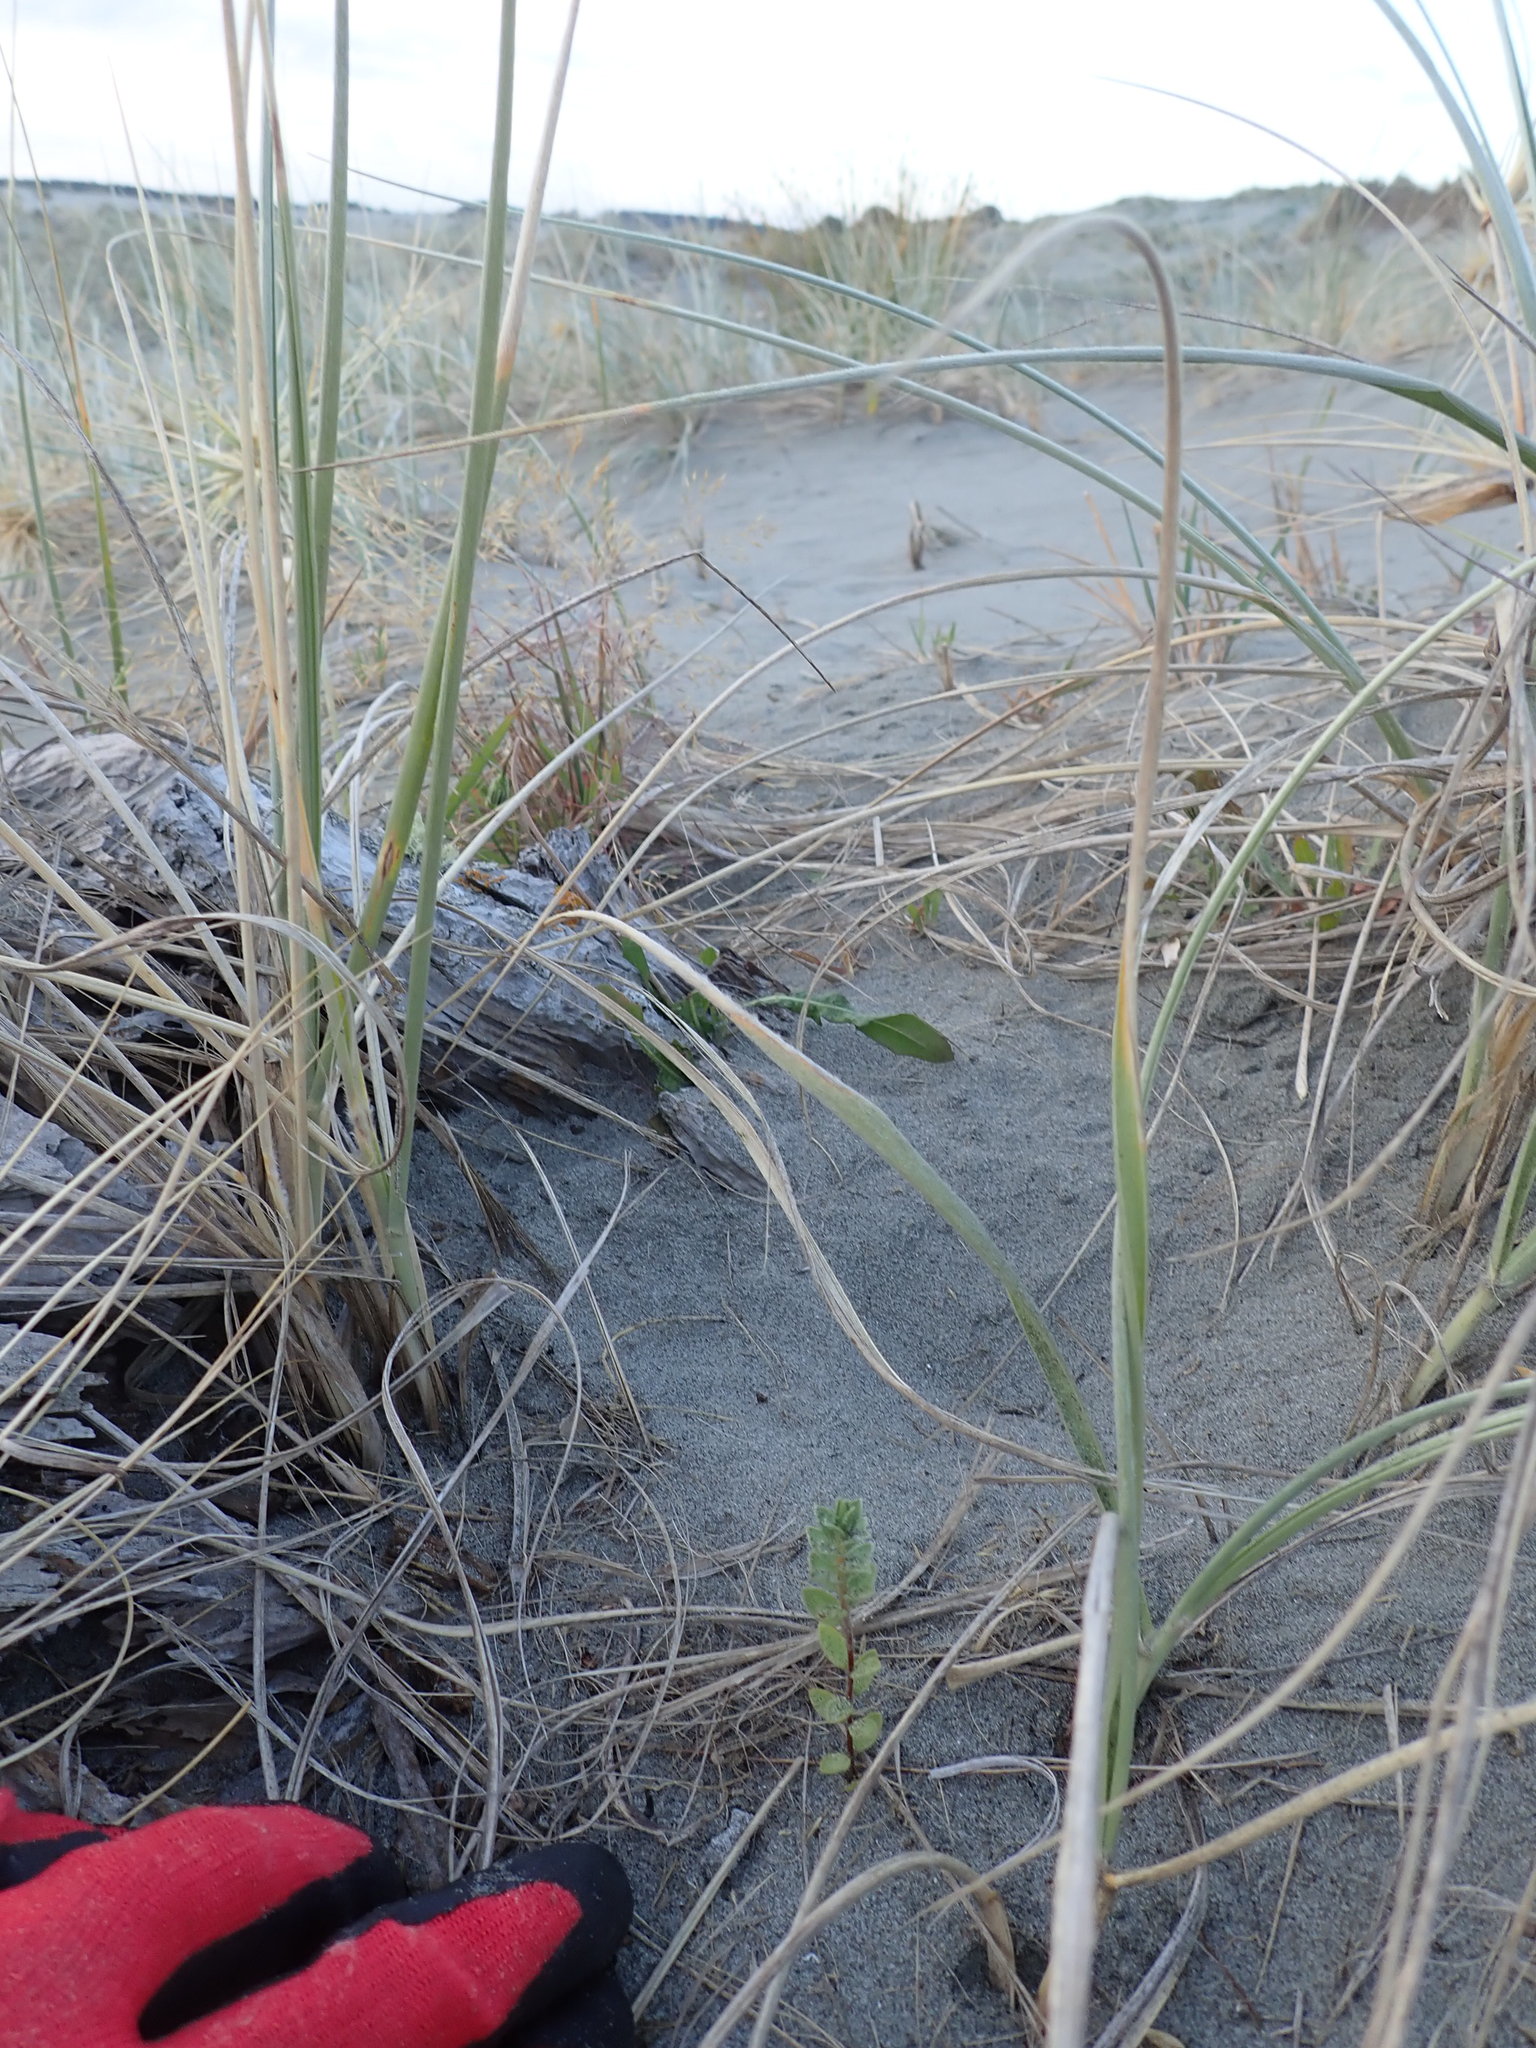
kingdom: Plantae
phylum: Tracheophyta
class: Magnoliopsida
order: Malvales
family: Thymelaeaceae
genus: Pimelea
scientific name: Pimelea villosa
